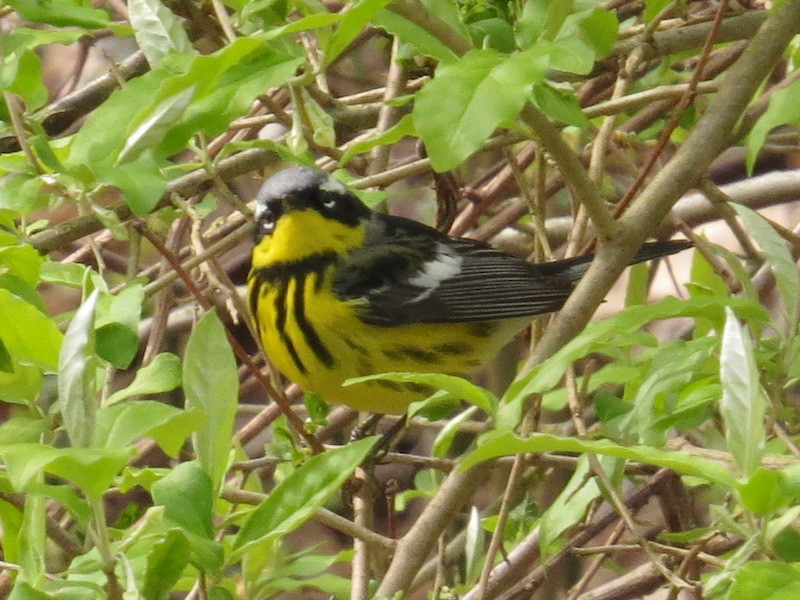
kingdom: Animalia
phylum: Chordata
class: Aves
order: Passeriformes
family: Parulidae
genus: Setophaga
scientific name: Setophaga magnolia
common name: Magnolia warbler
